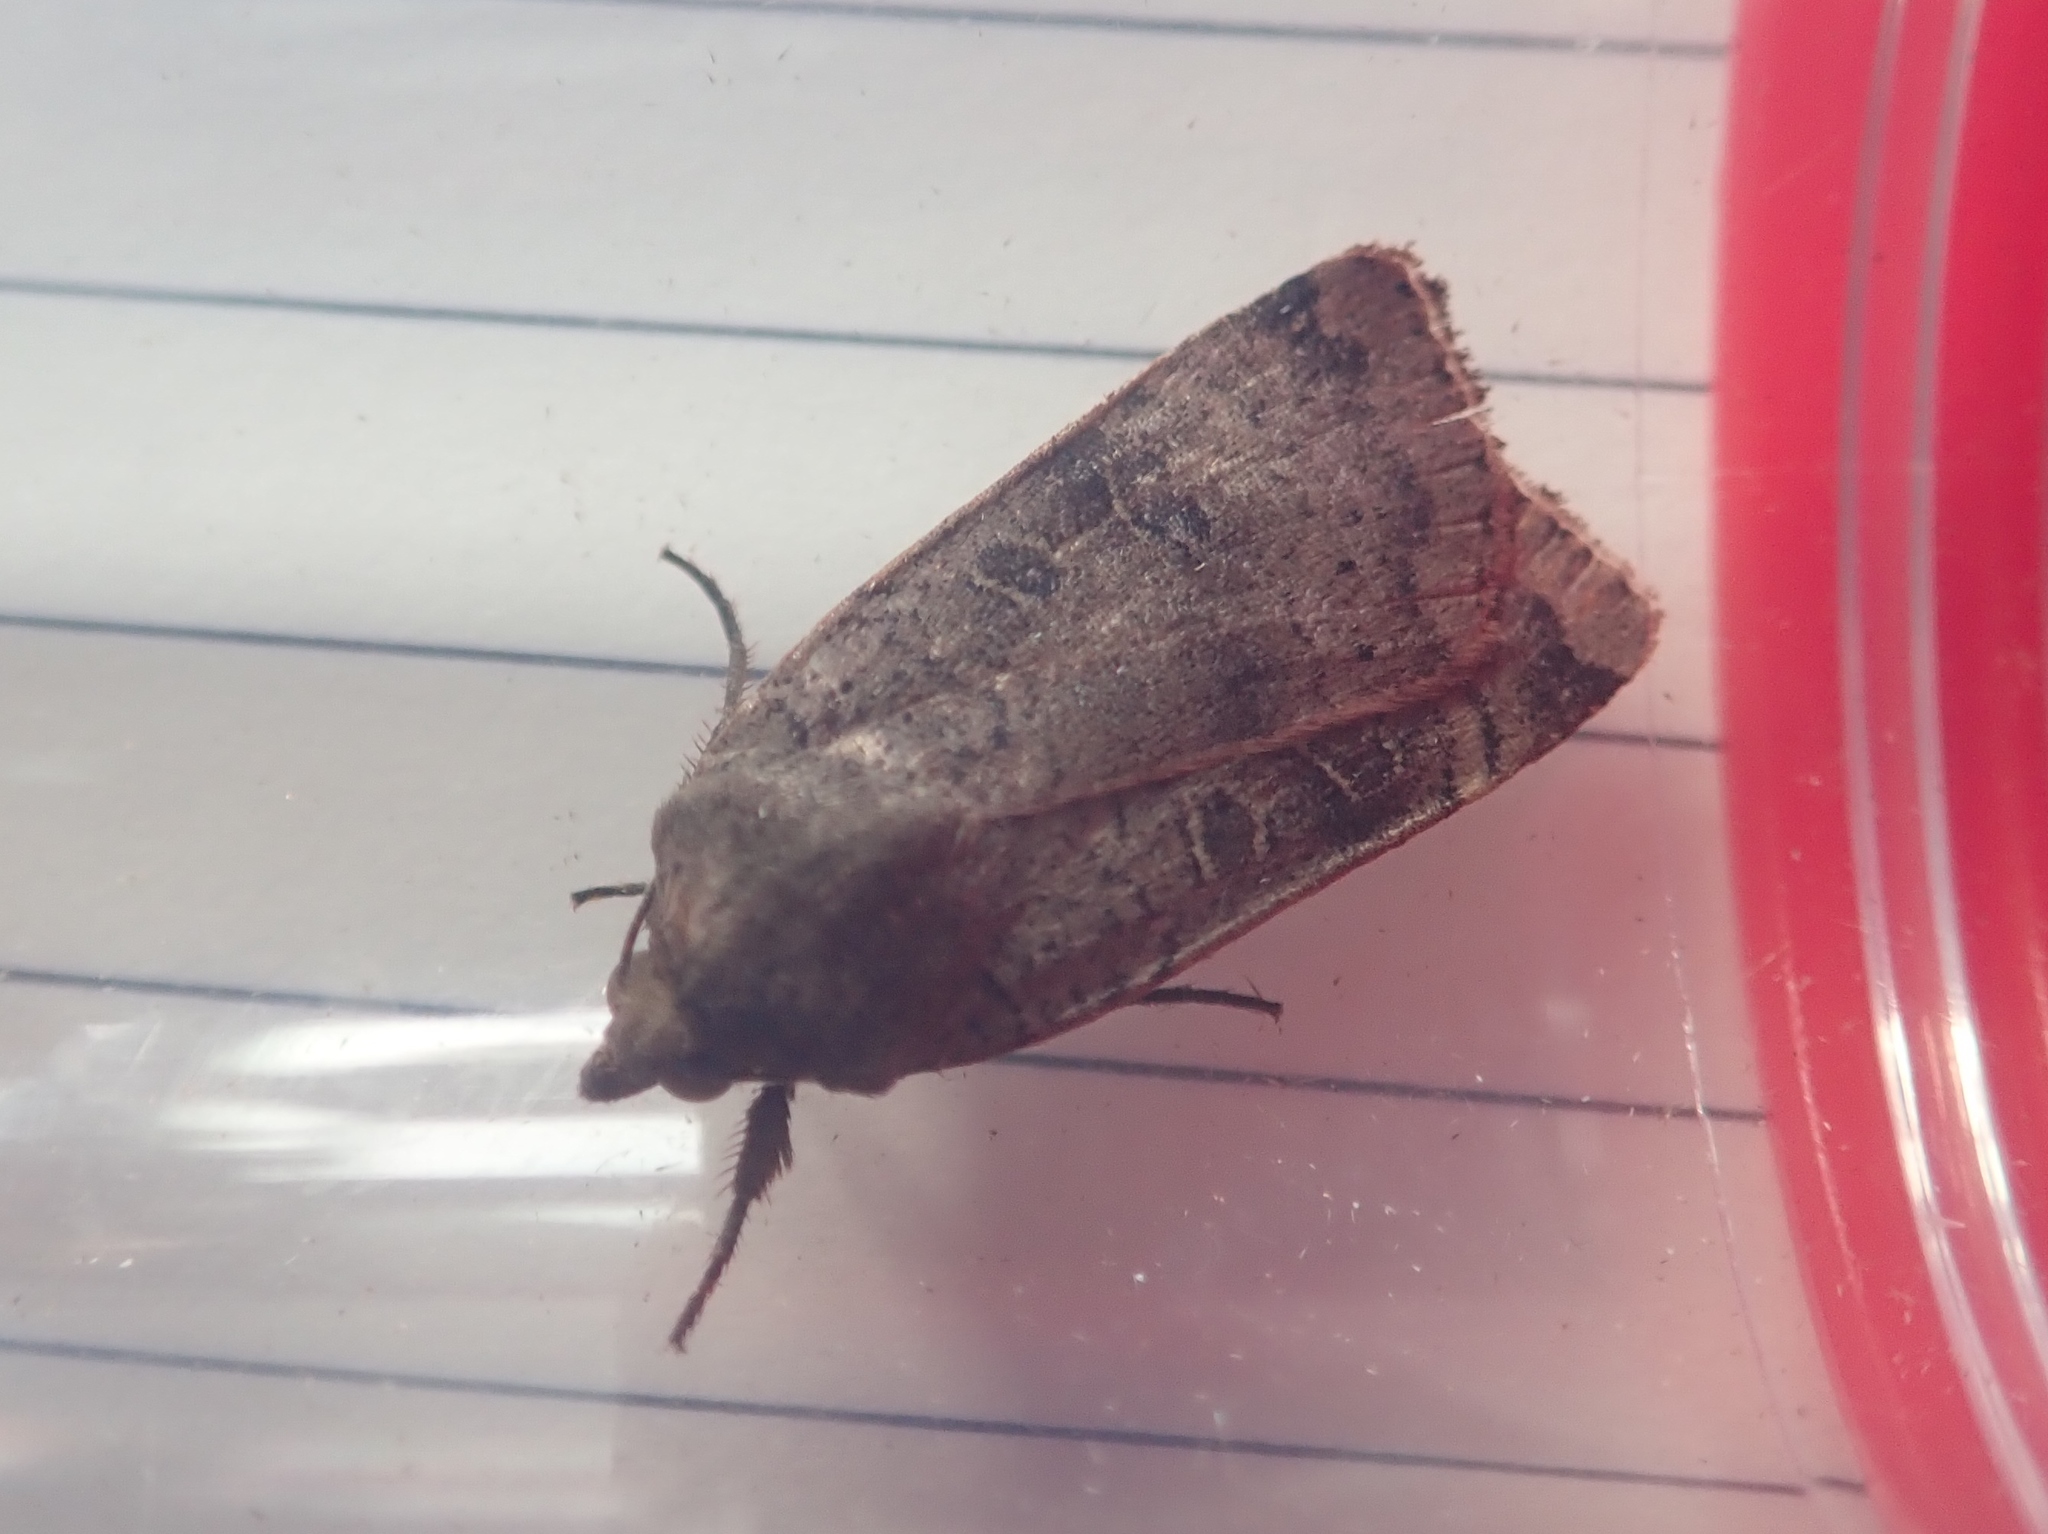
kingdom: Animalia
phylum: Arthropoda
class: Insecta
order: Lepidoptera
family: Noctuidae
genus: Noctua
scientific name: Noctua comes
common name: Lesser yellow underwing
